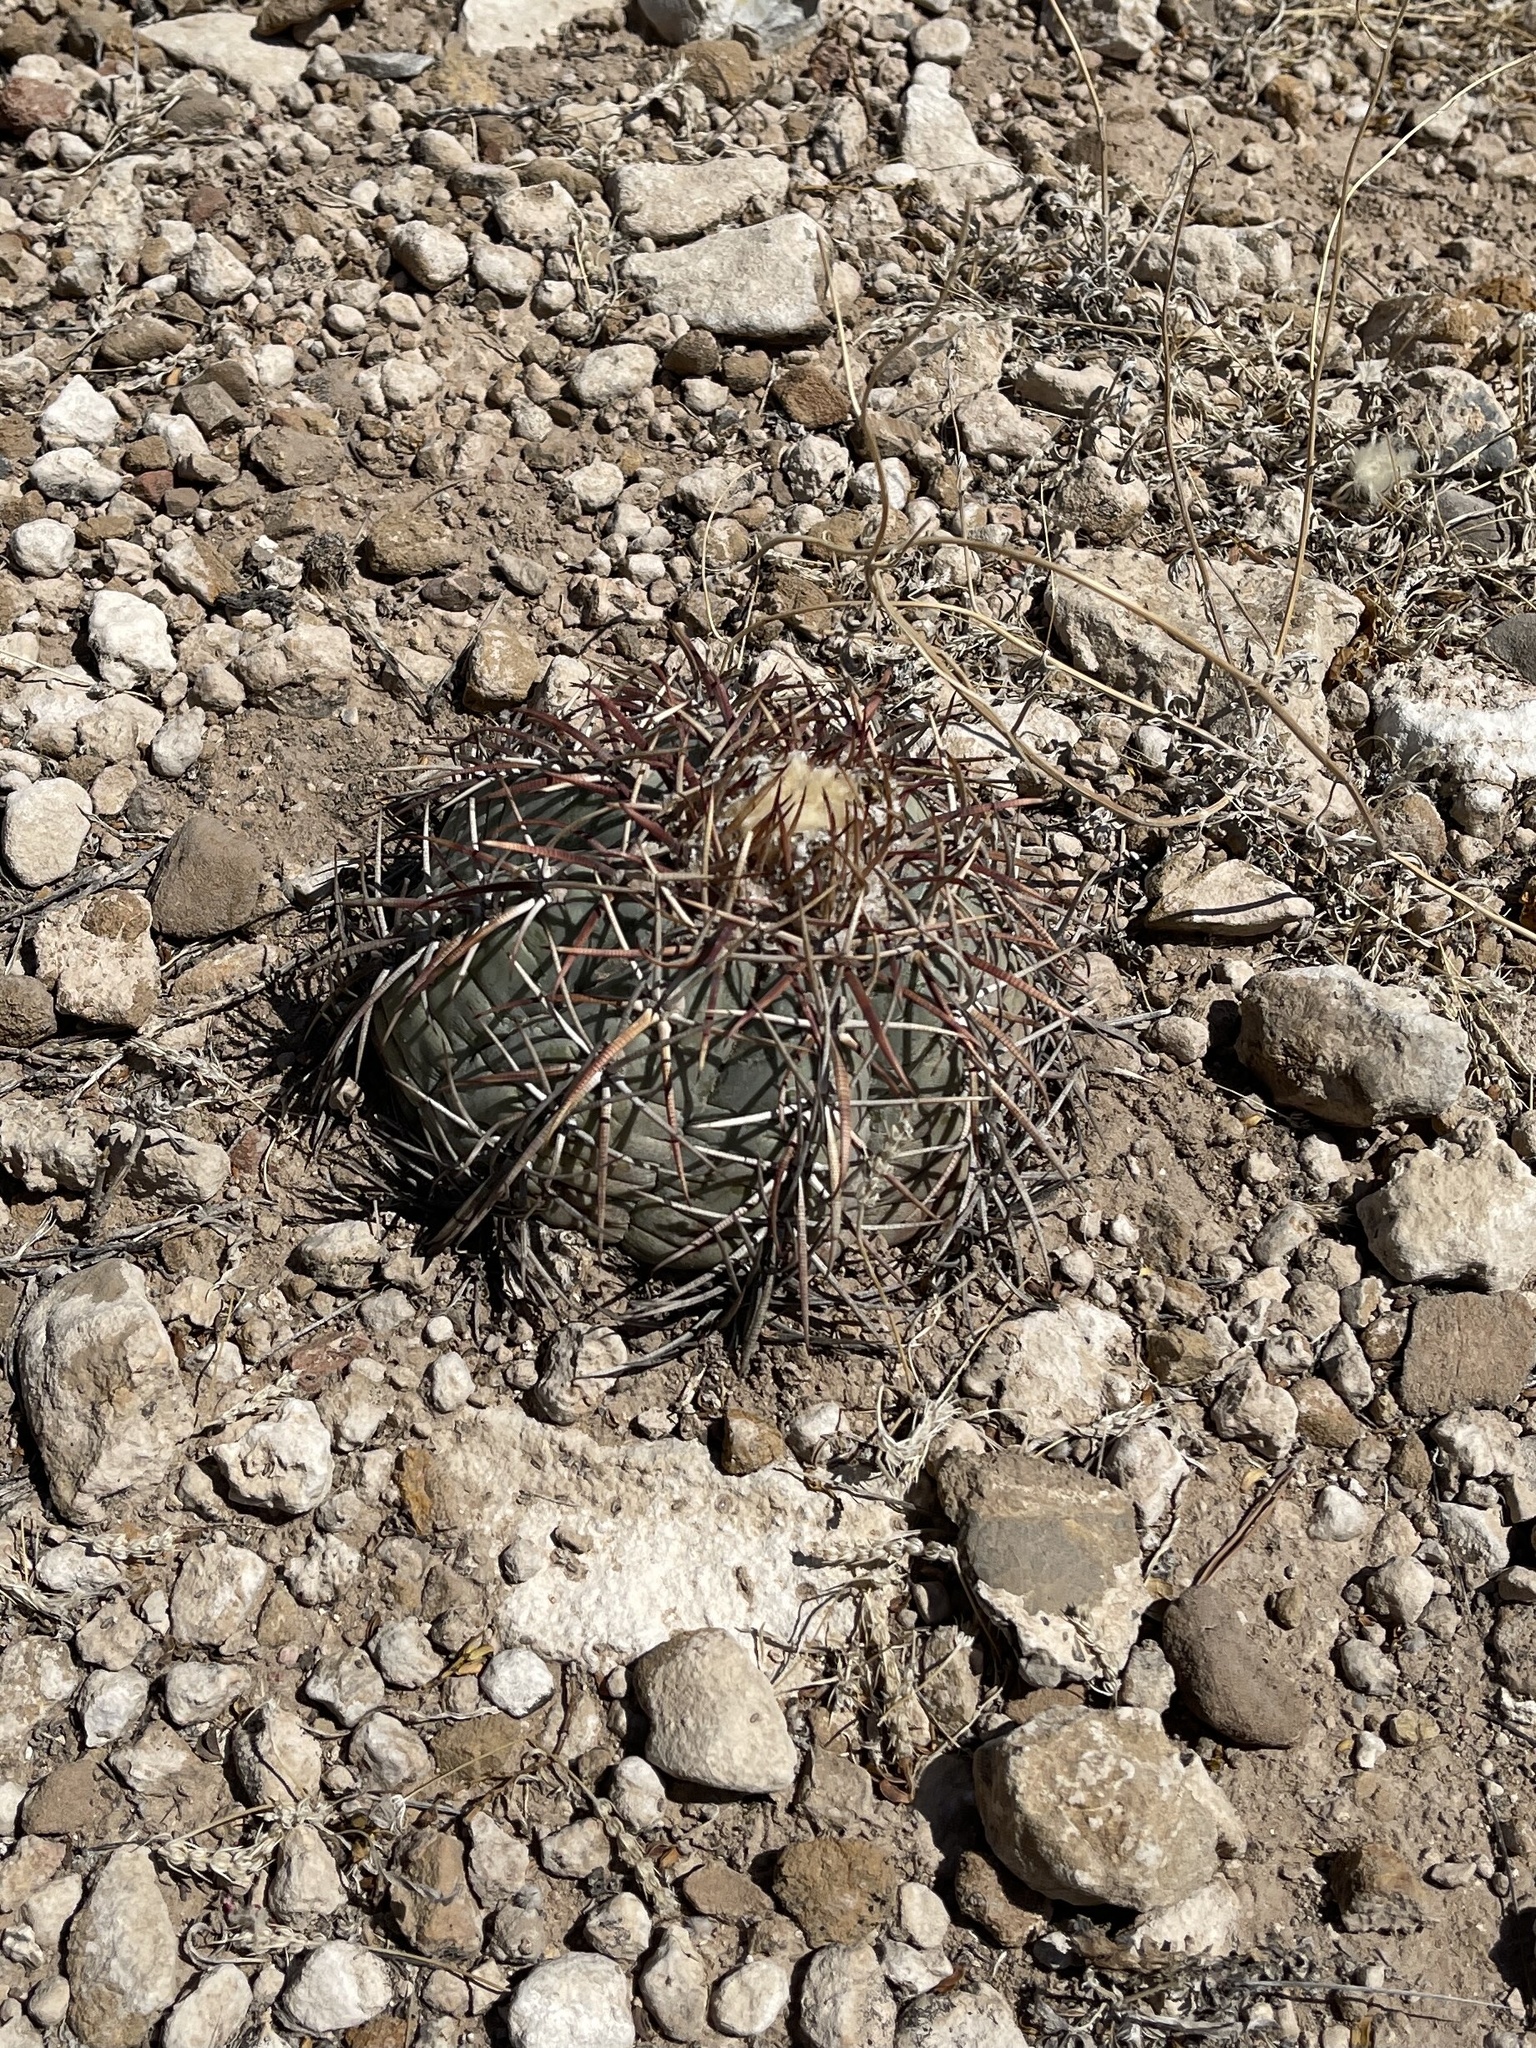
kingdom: Plantae
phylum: Tracheophyta
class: Magnoliopsida
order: Caryophyllales
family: Cactaceae
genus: Echinocactus
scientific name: Echinocactus horizonthalonius
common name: Devilshead
